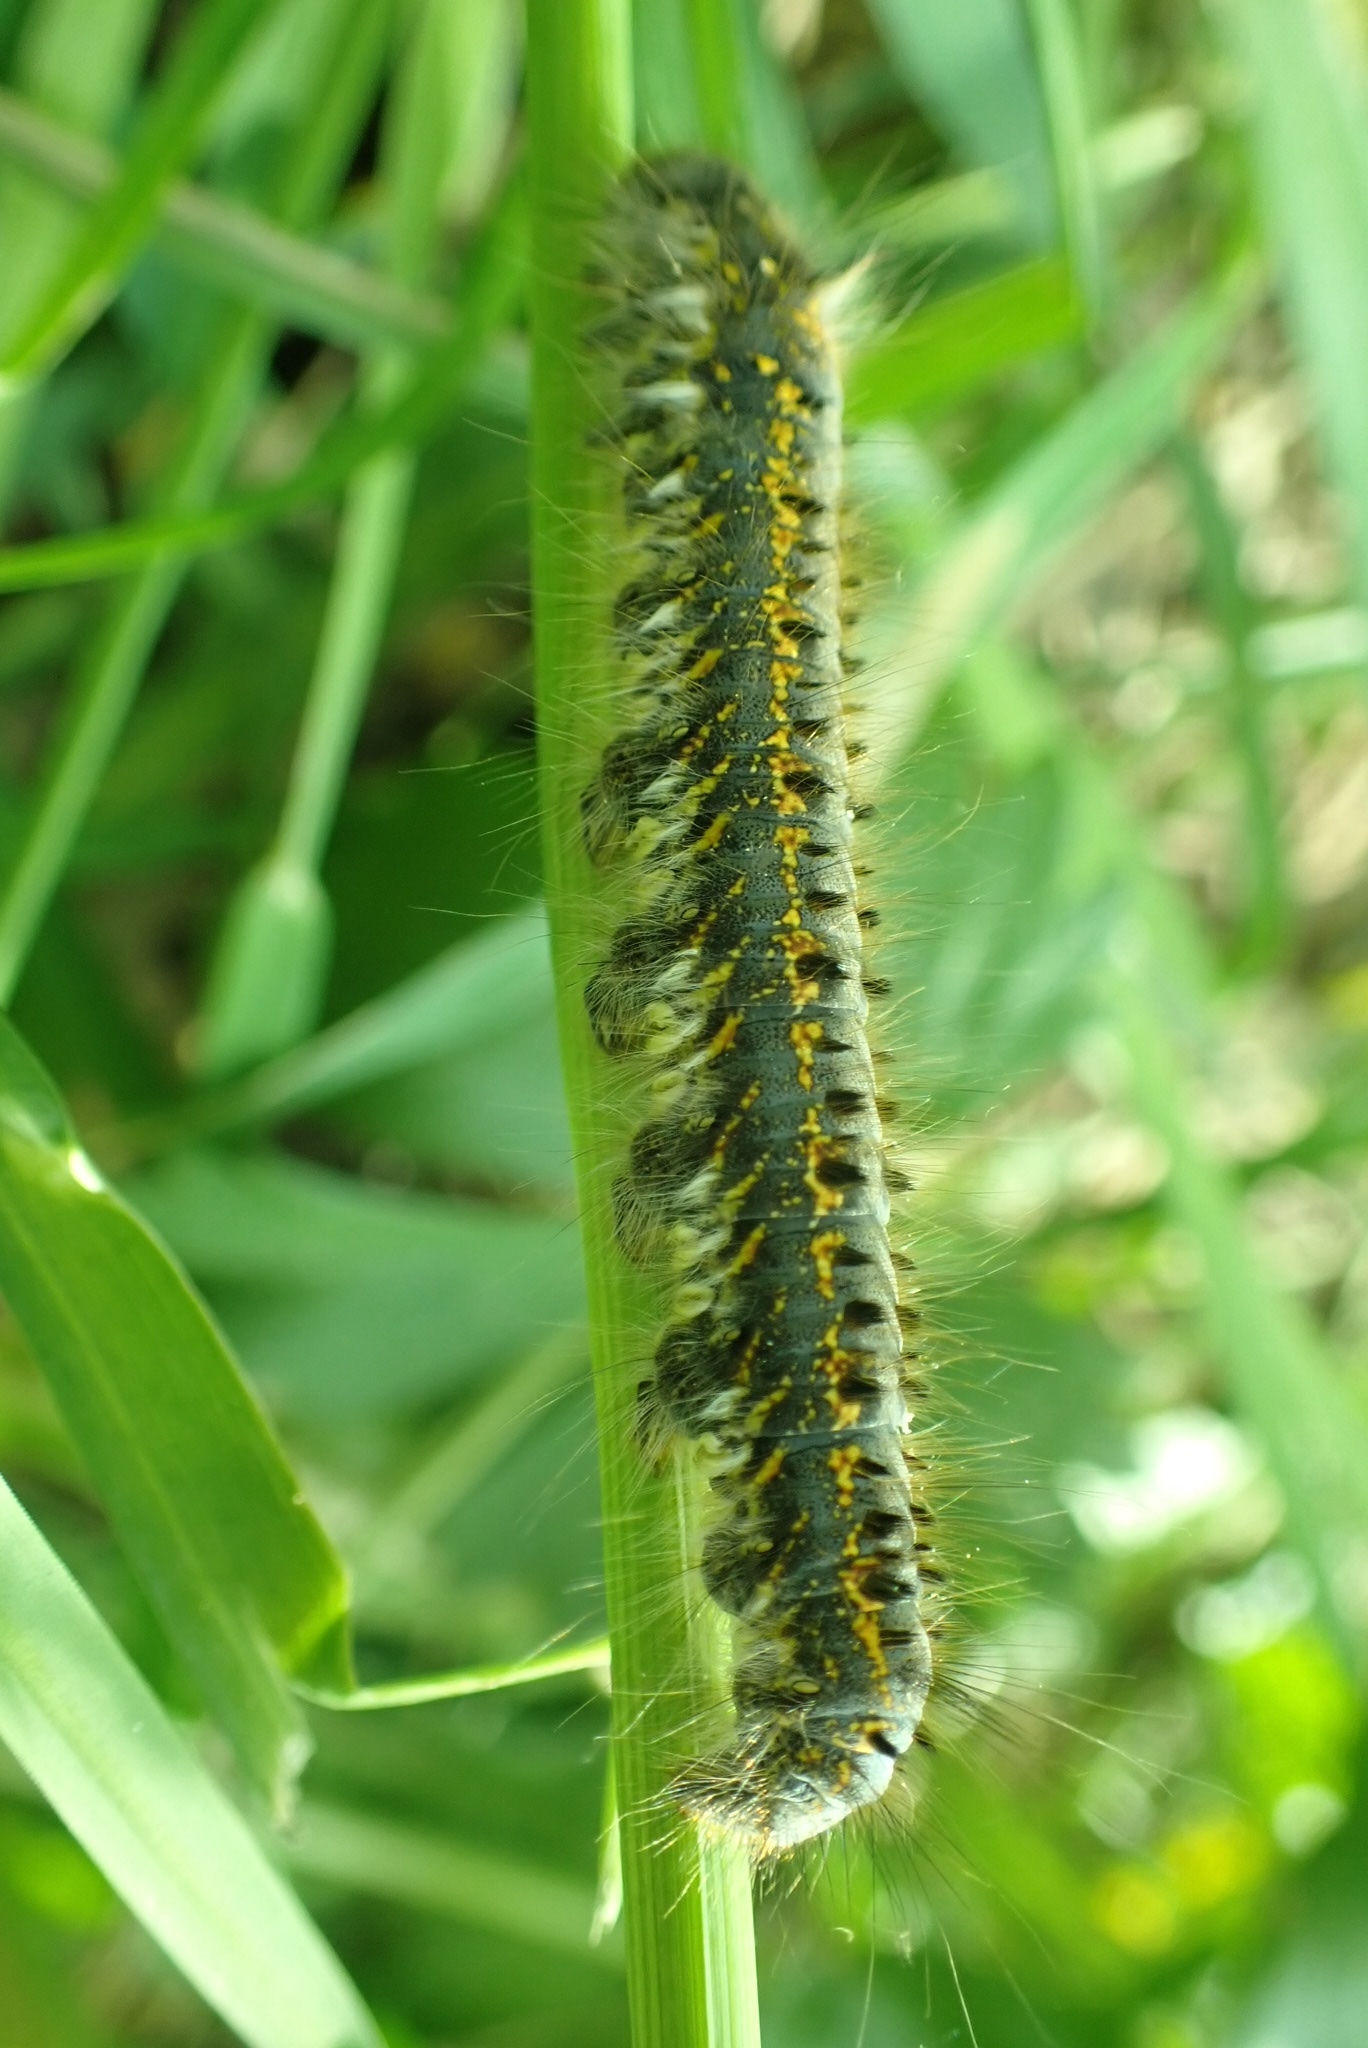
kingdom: Animalia
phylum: Arthropoda
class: Insecta
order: Lepidoptera
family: Lasiocampidae
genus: Euthrix
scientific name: Euthrix potatoria
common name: Drinker
